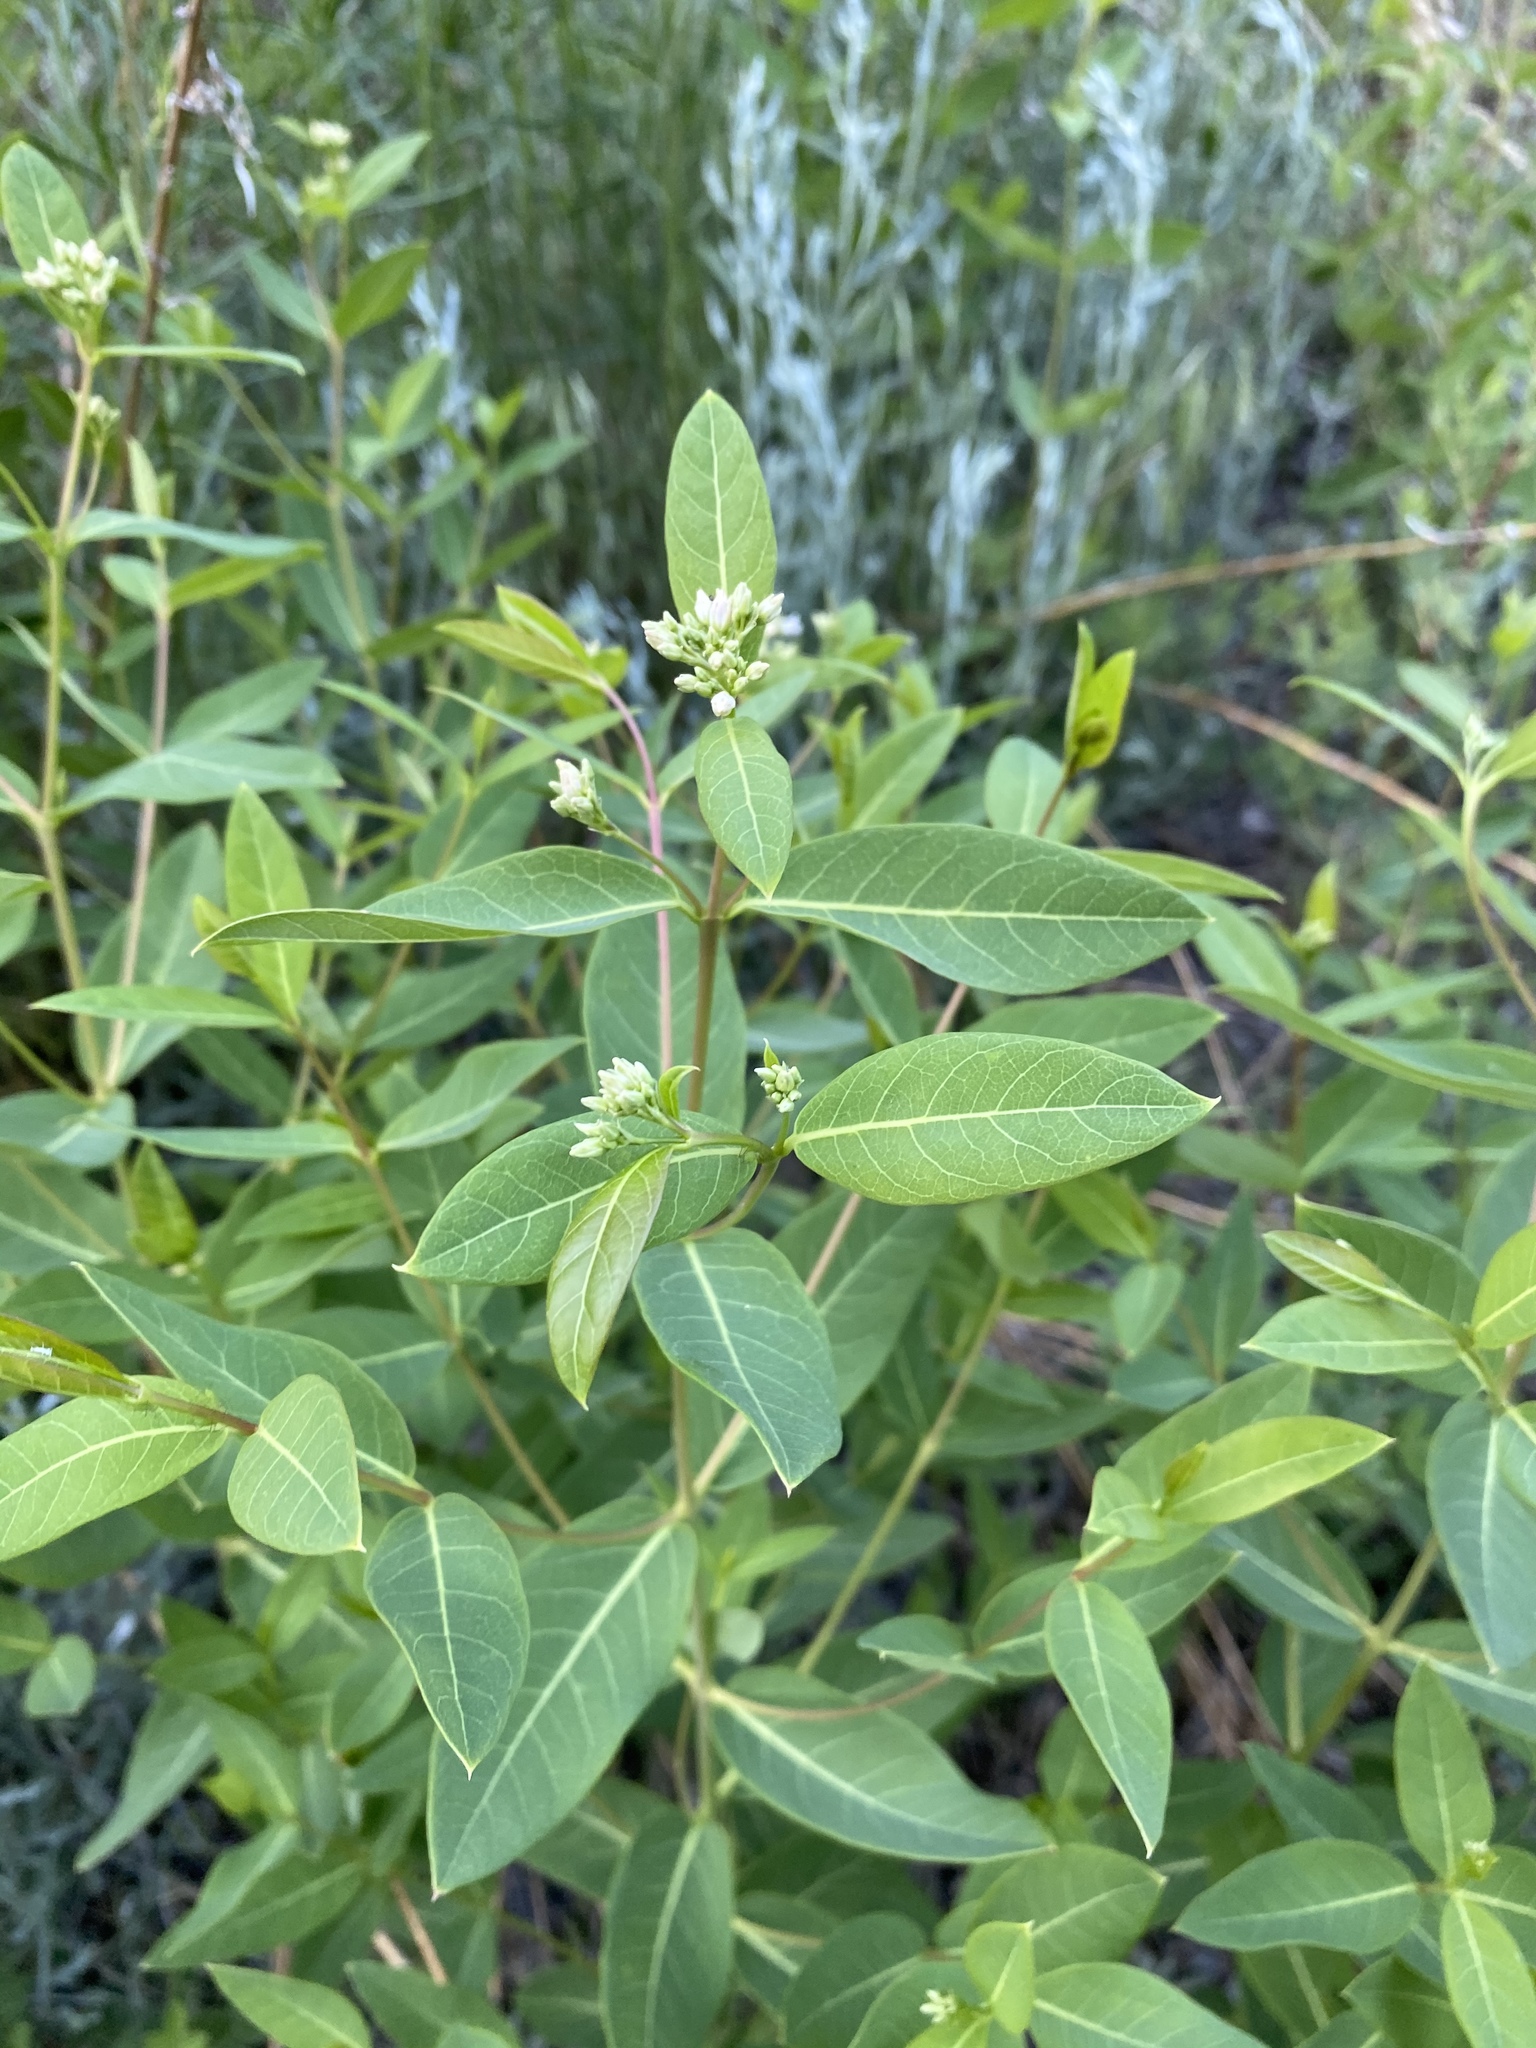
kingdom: Plantae
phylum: Tracheophyta
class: Magnoliopsida
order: Gentianales
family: Apocynaceae
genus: Apocynum
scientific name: Apocynum cannabinum
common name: Hemp dogbane
